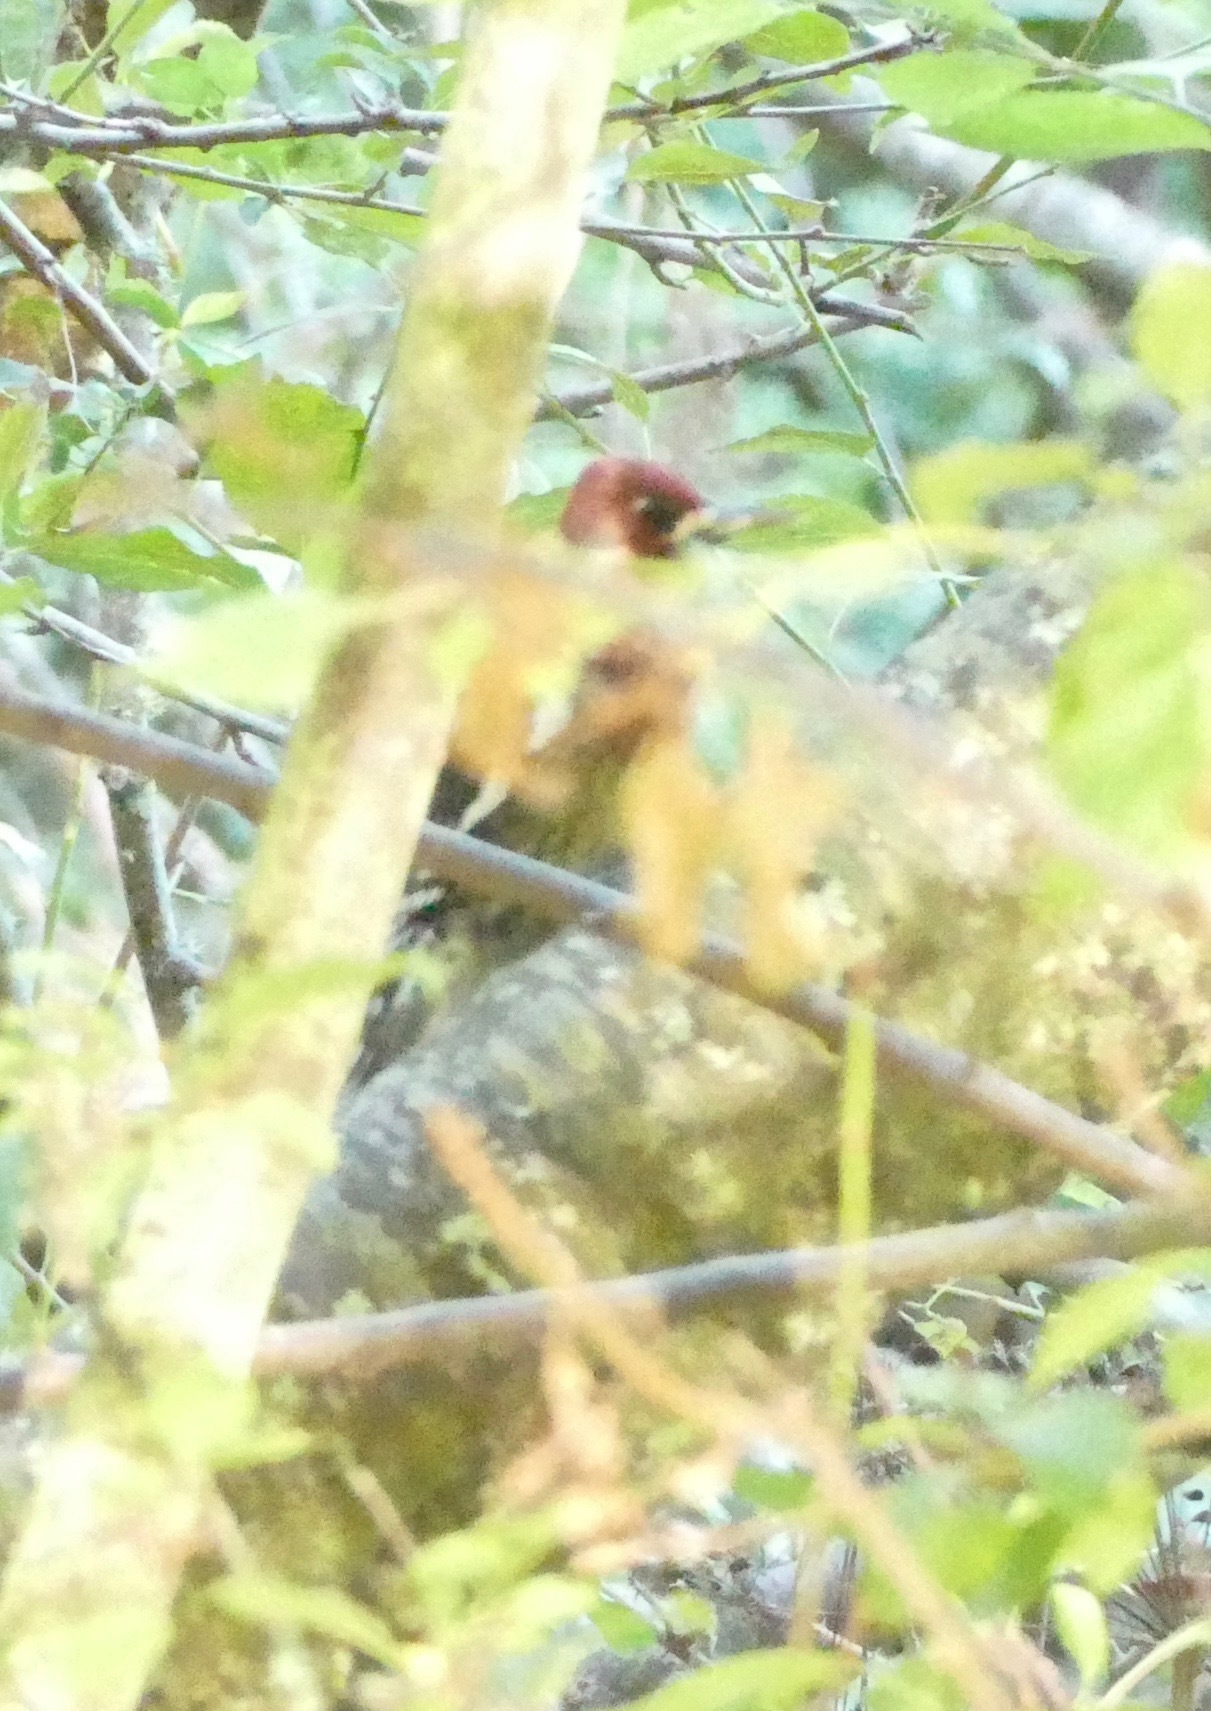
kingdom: Animalia
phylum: Chordata
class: Aves
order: Piciformes
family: Picidae
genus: Sphyrapicus
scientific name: Sphyrapicus ruber
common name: Red-breasted sapsucker
